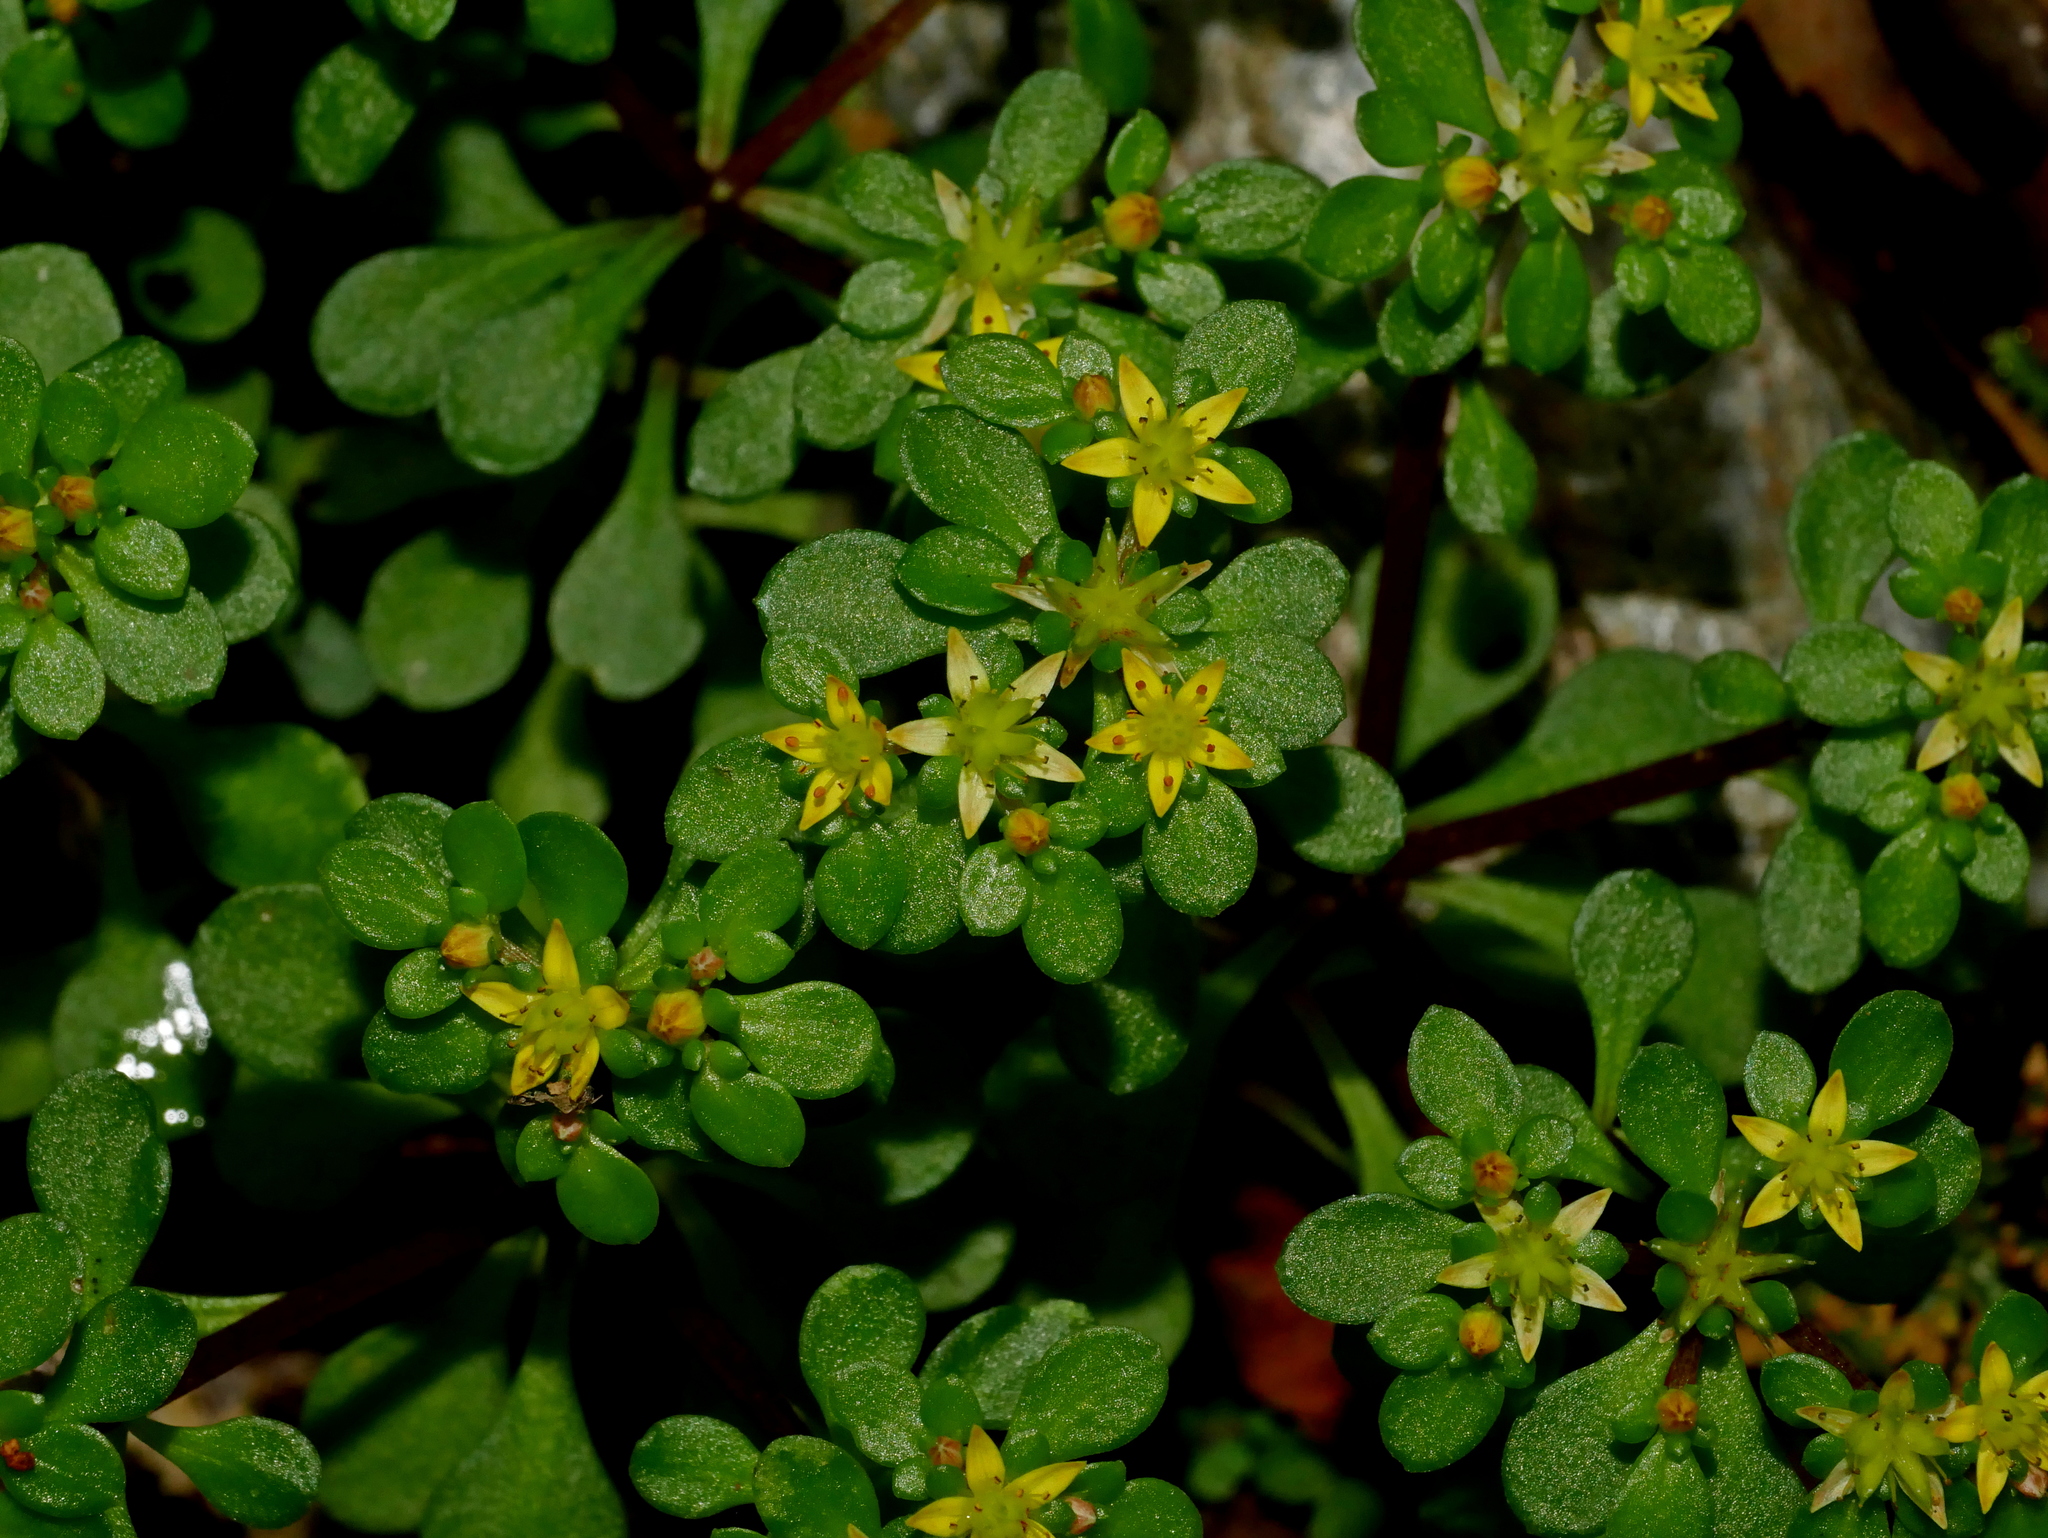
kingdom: Plantae
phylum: Tracheophyta
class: Magnoliopsida
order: Saxifragales
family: Crassulaceae
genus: Sedum
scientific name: Sedum actinocarpum
